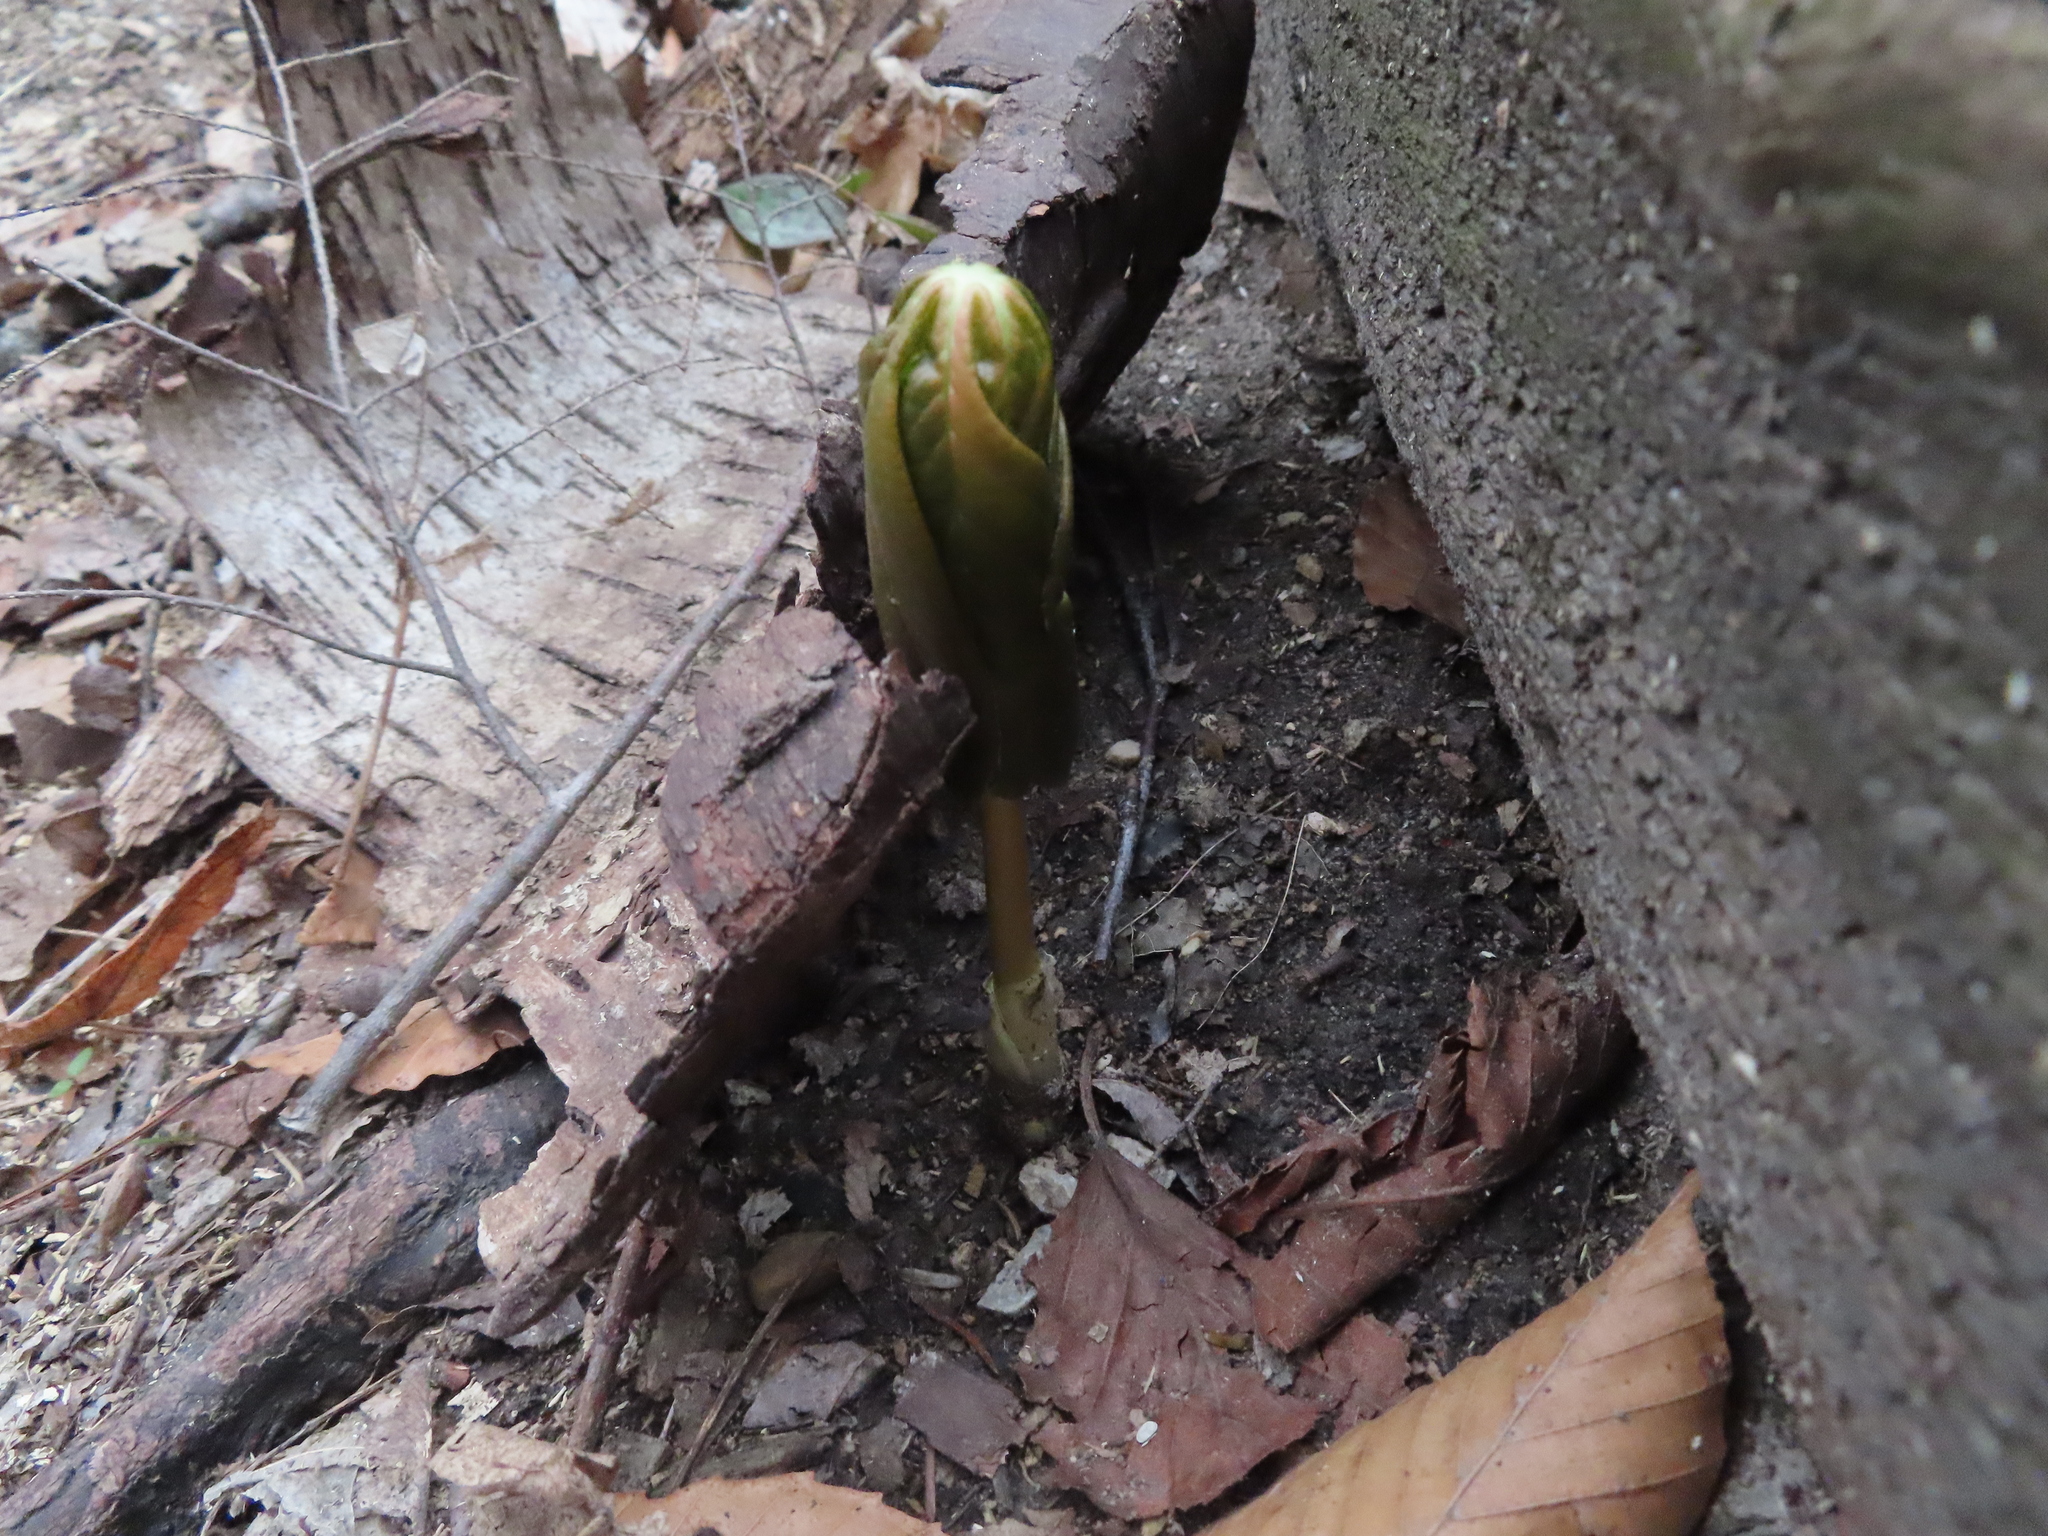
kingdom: Plantae
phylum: Tracheophyta
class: Magnoliopsida
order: Ranunculales
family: Berberidaceae
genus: Podophyllum
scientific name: Podophyllum peltatum
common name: Wild mandrake
